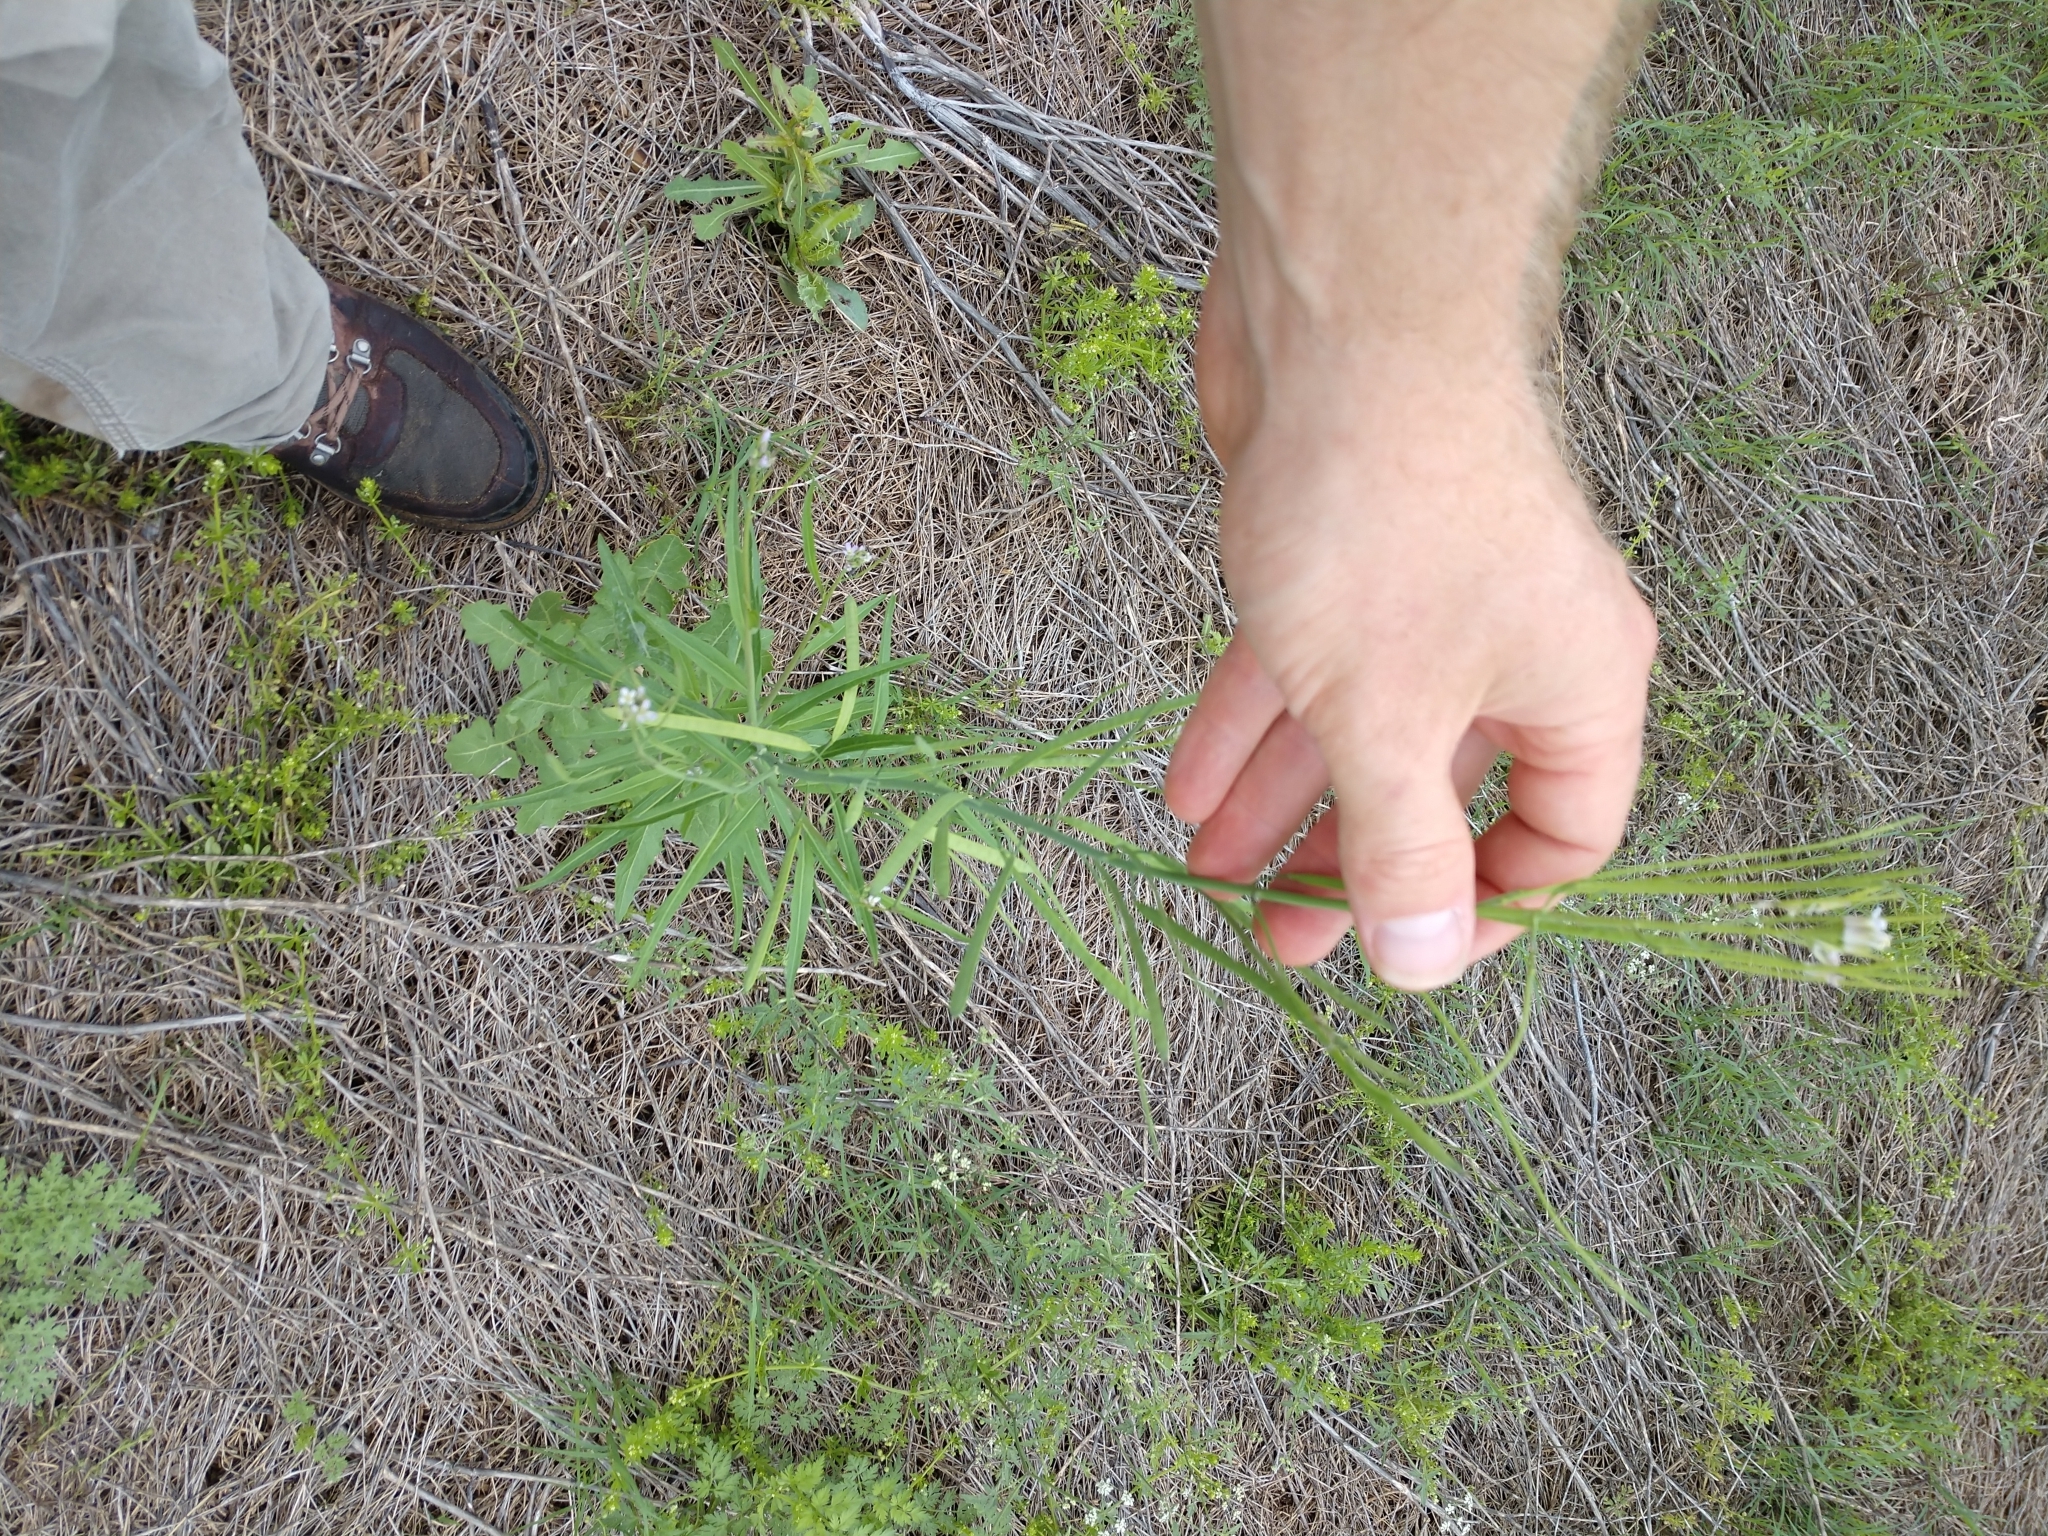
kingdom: Plantae
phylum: Tracheophyta
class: Magnoliopsida
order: Brassicales
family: Brassicaceae
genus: Streptanthus
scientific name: Streptanthus petiolaris
